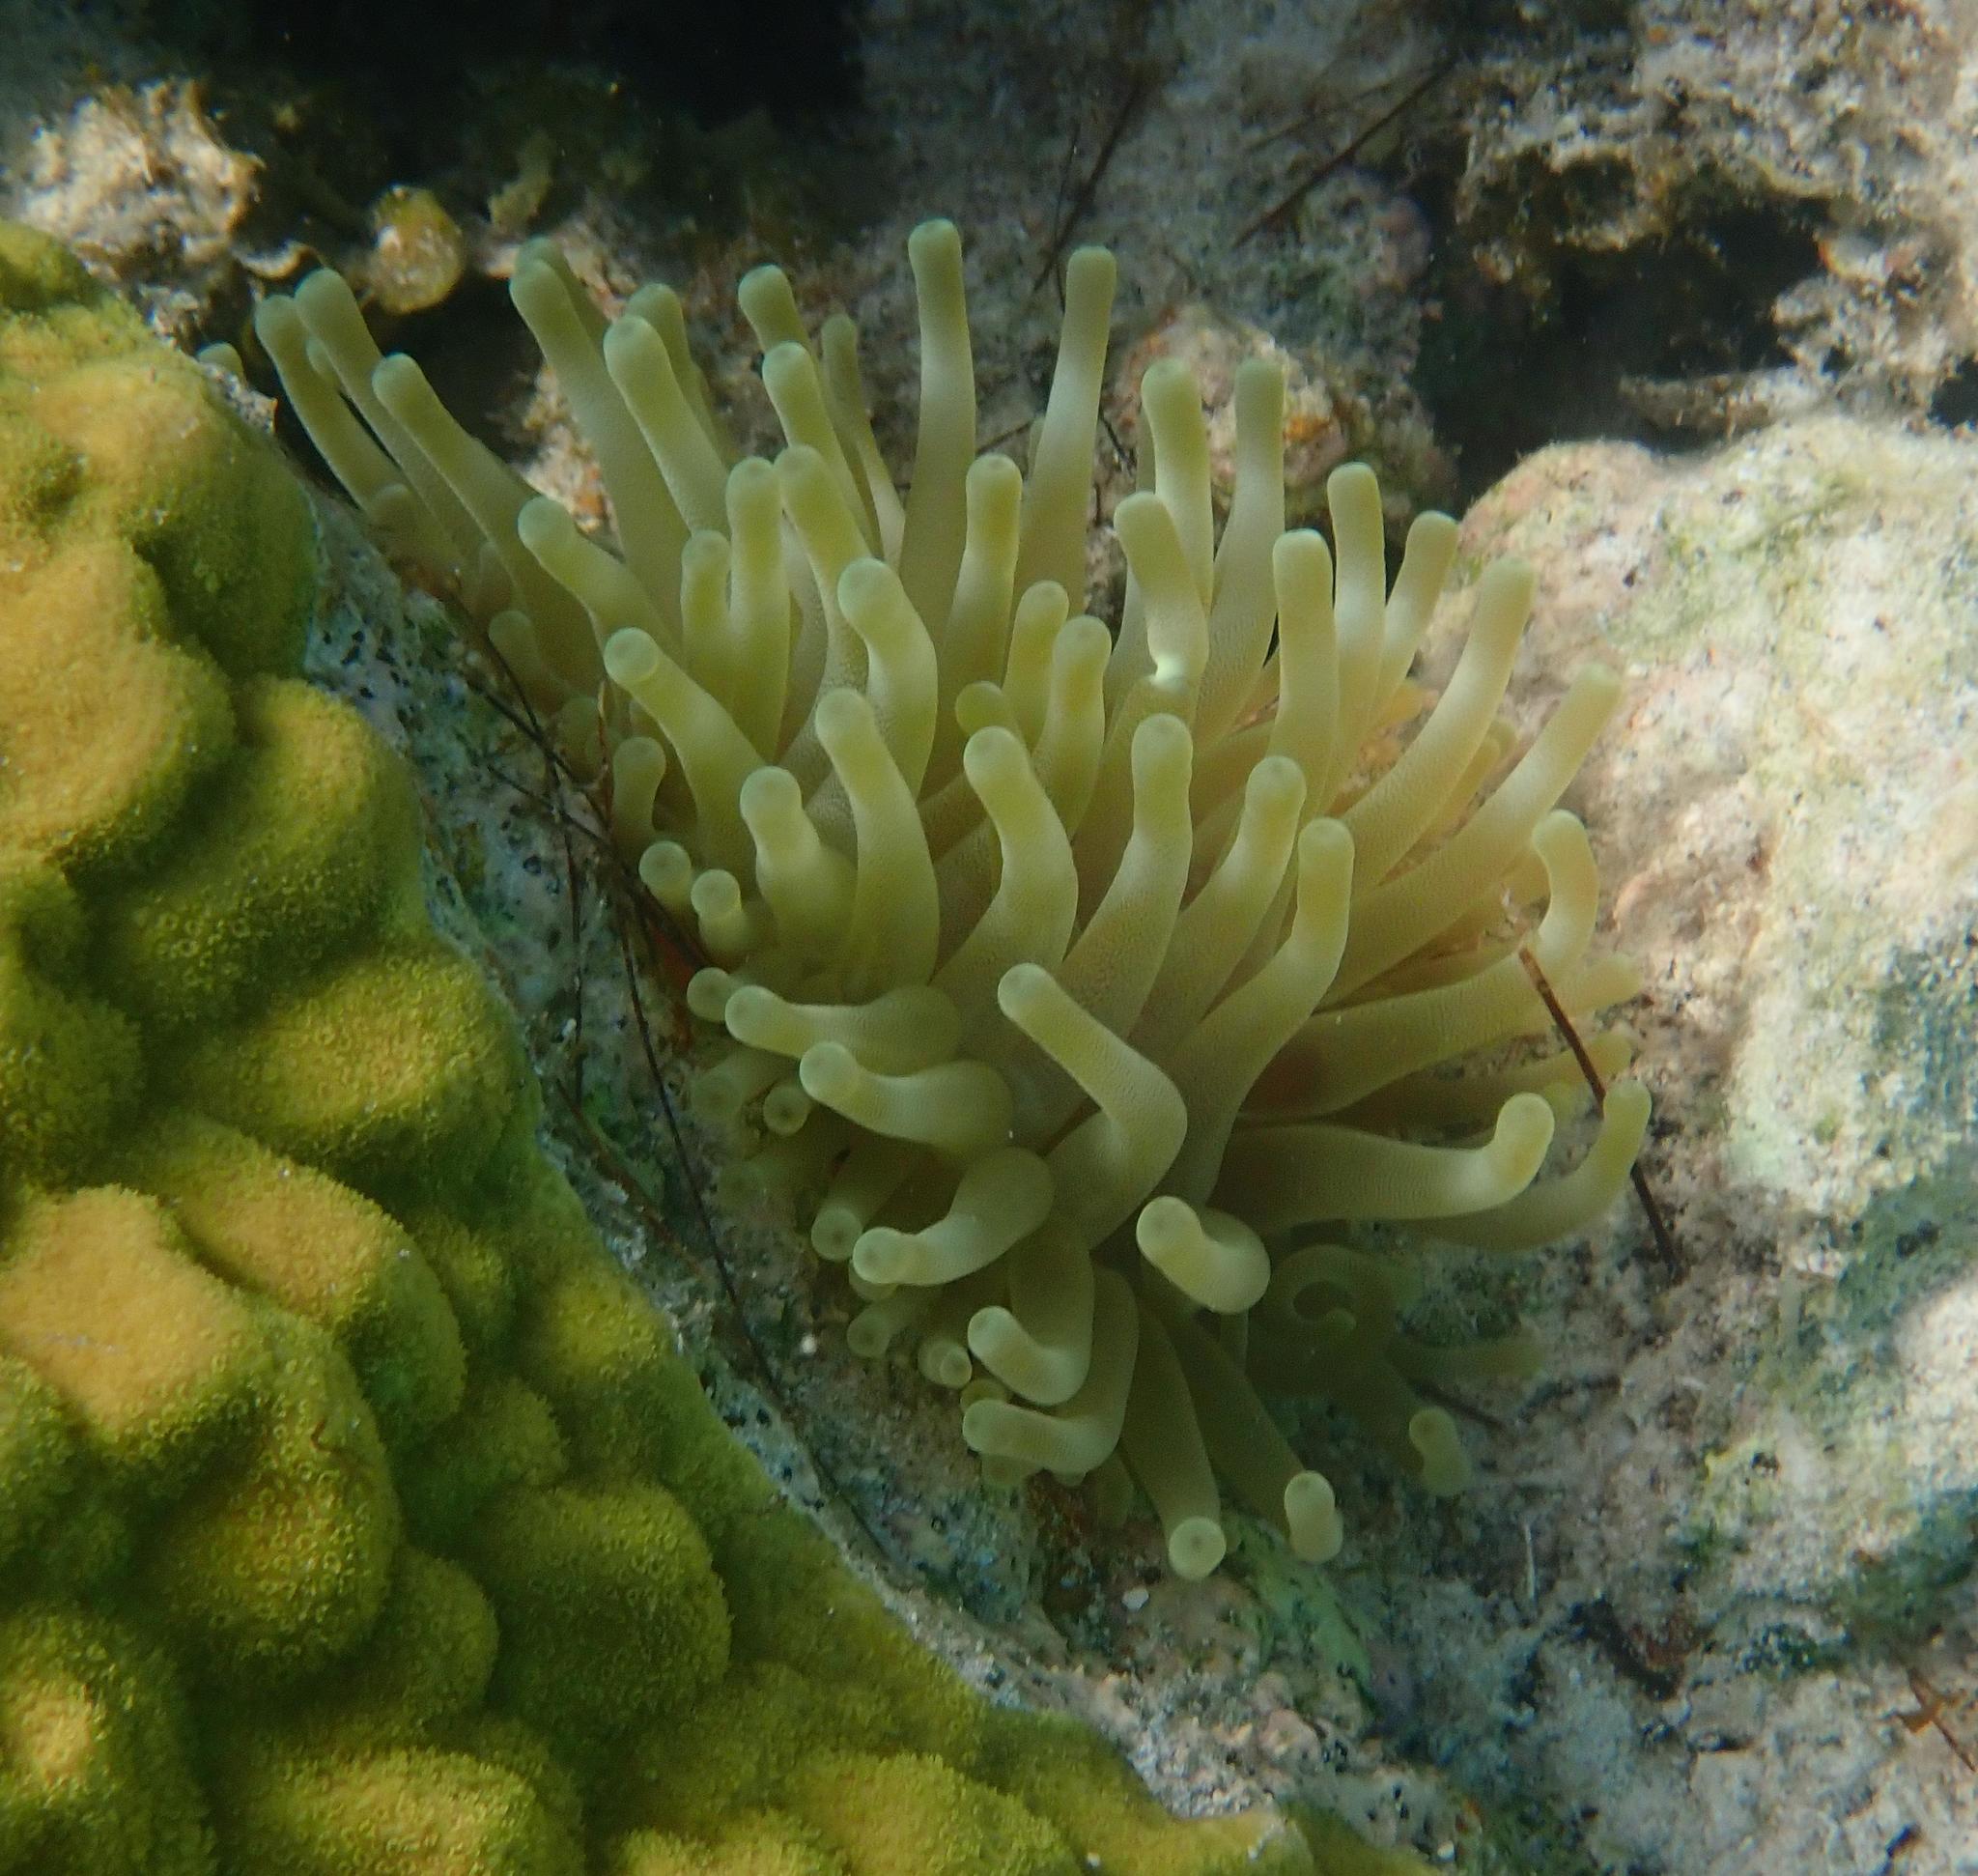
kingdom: Animalia
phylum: Cnidaria
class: Anthozoa
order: Actiniaria
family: Actiniidae
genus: Condylactis
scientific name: Condylactis gigantea
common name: Giant caribbean anemone
